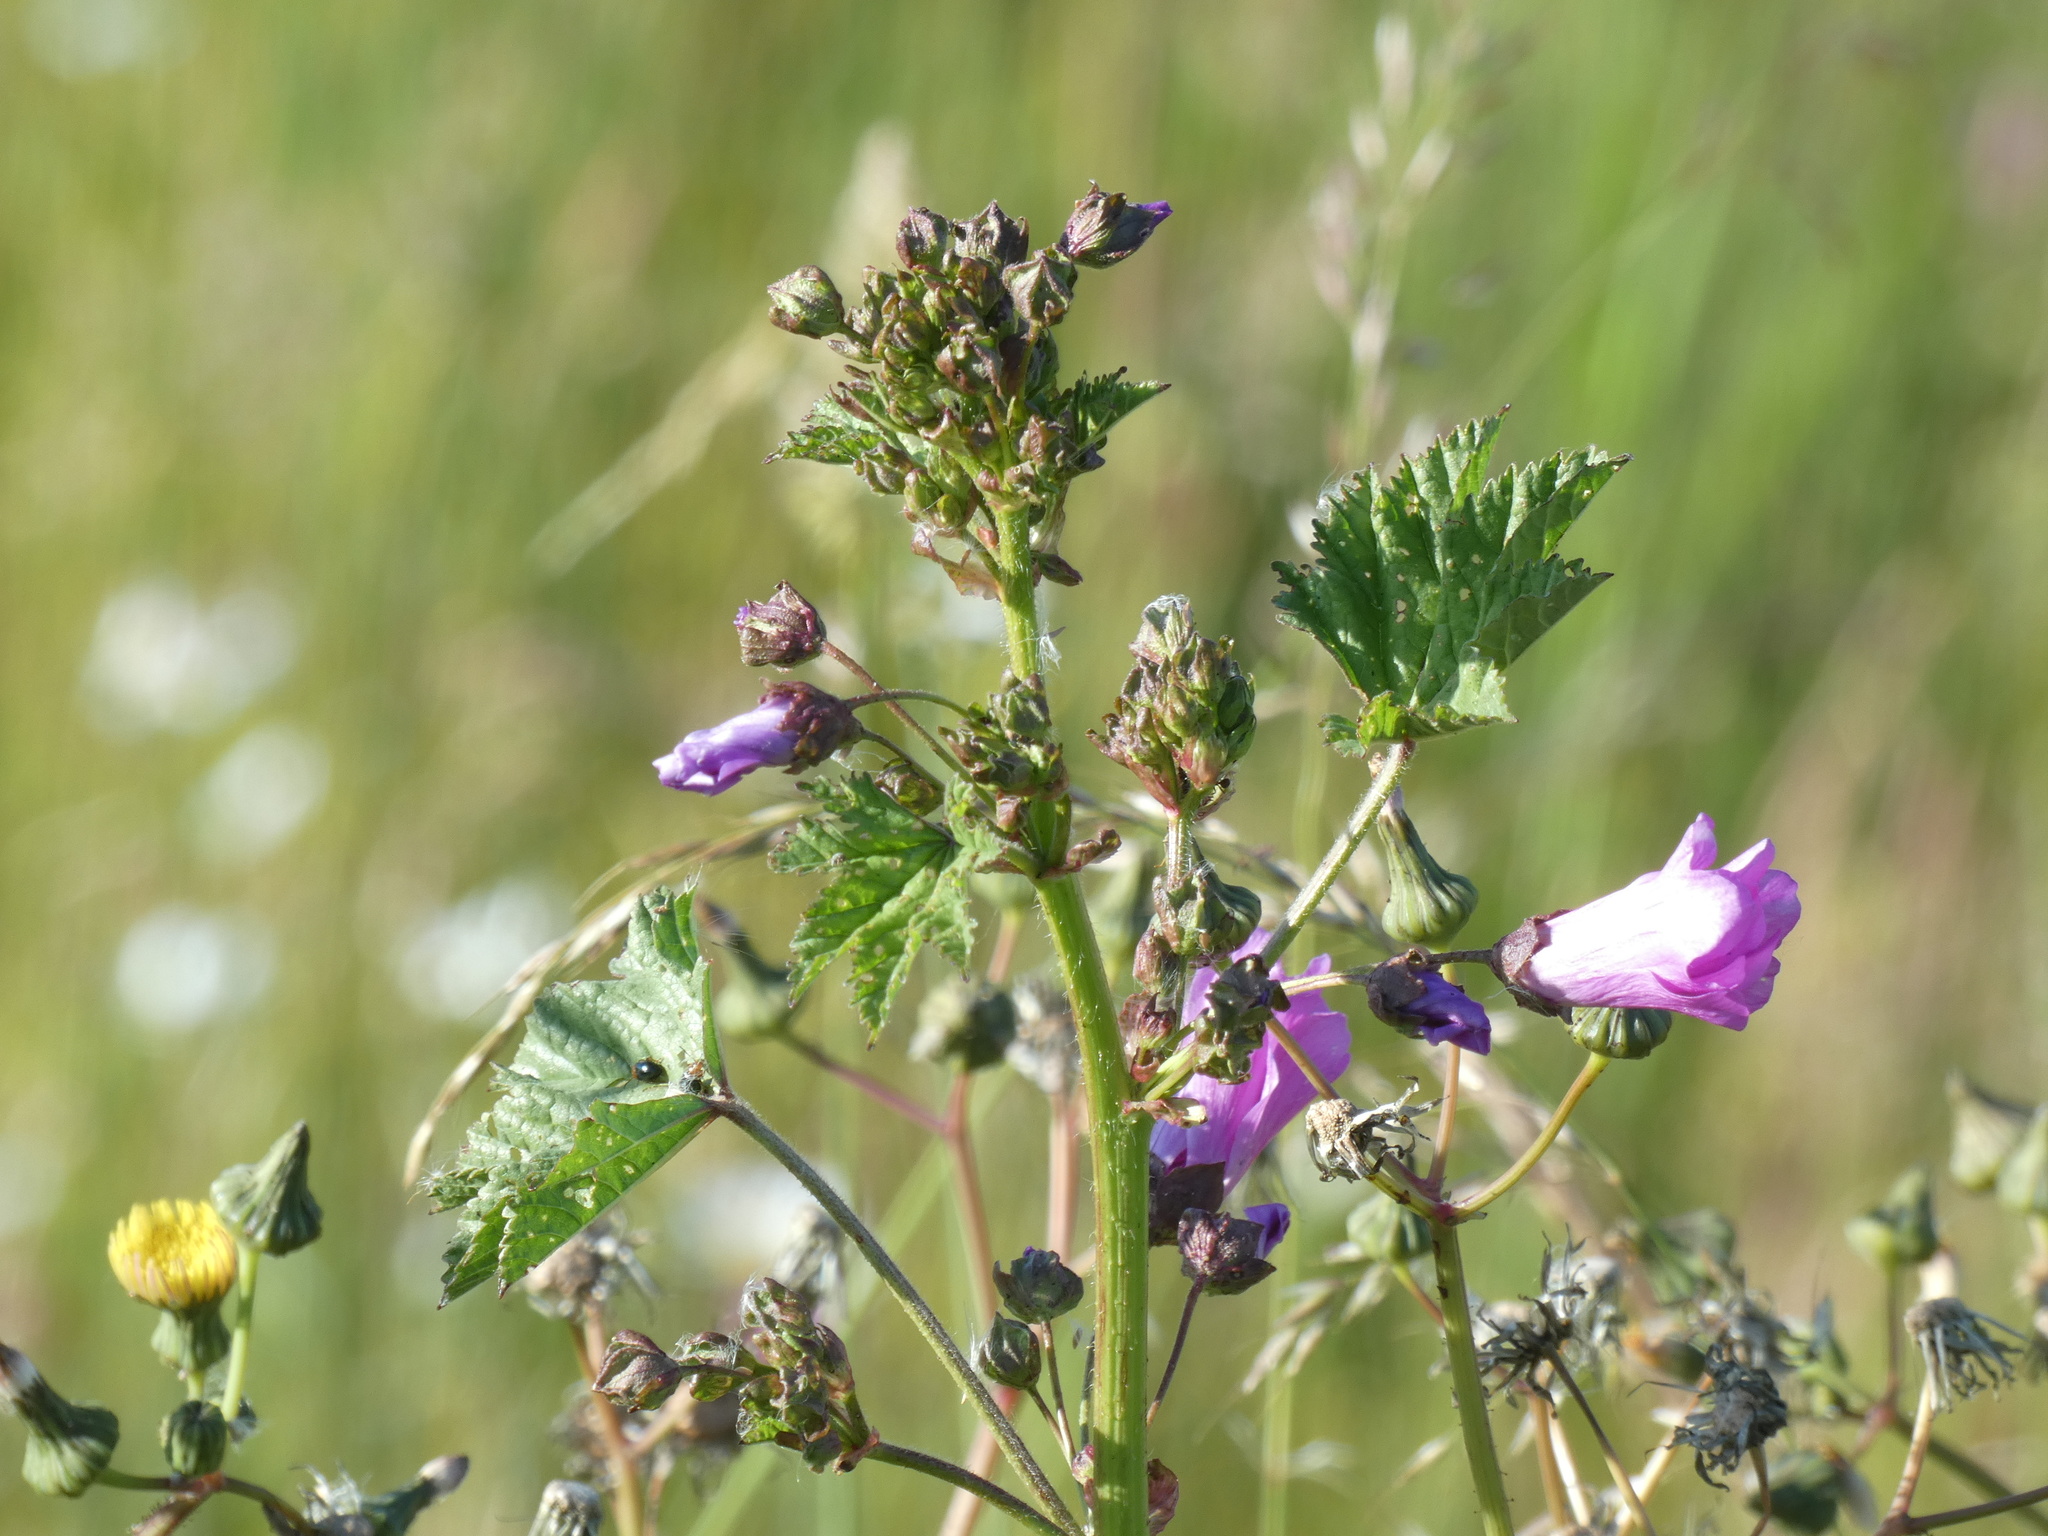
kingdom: Plantae
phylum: Tracheophyta
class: Magnoliopsida
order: Malvales
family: Malvaceae
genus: Malva
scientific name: Malva sylvestris
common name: Common mallow
